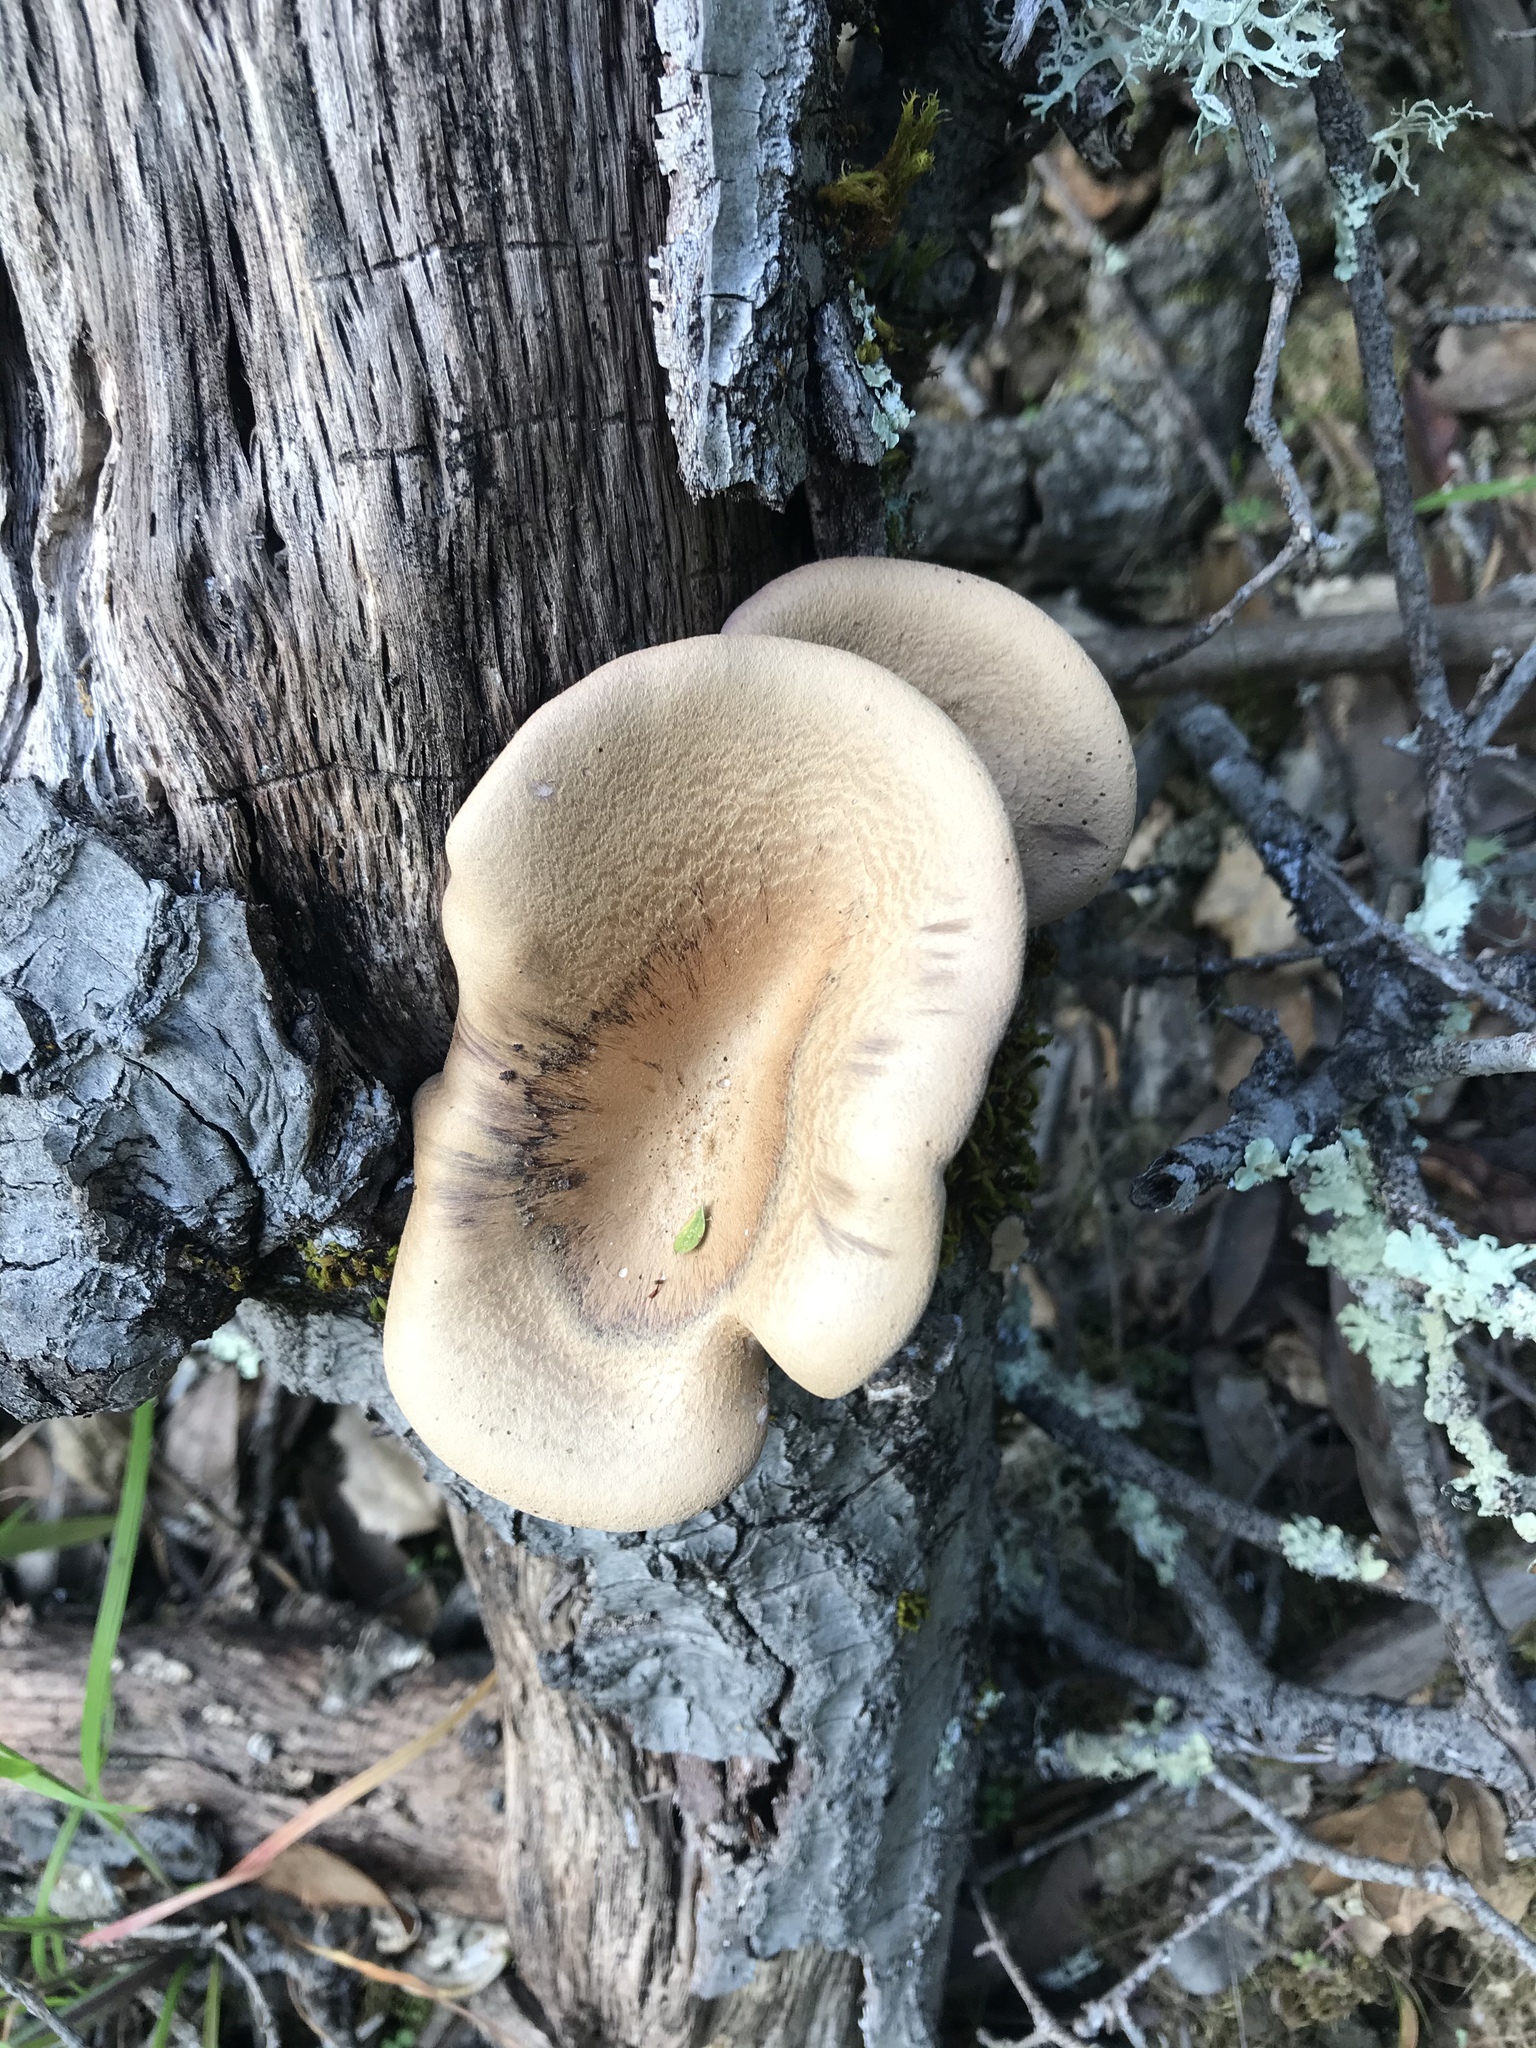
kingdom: Fungi
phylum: Basidiomycota
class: Agaricomycetes
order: Polyporales
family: Panaceae
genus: Panus
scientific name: Panus conchatus
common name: Lilac oysterling
